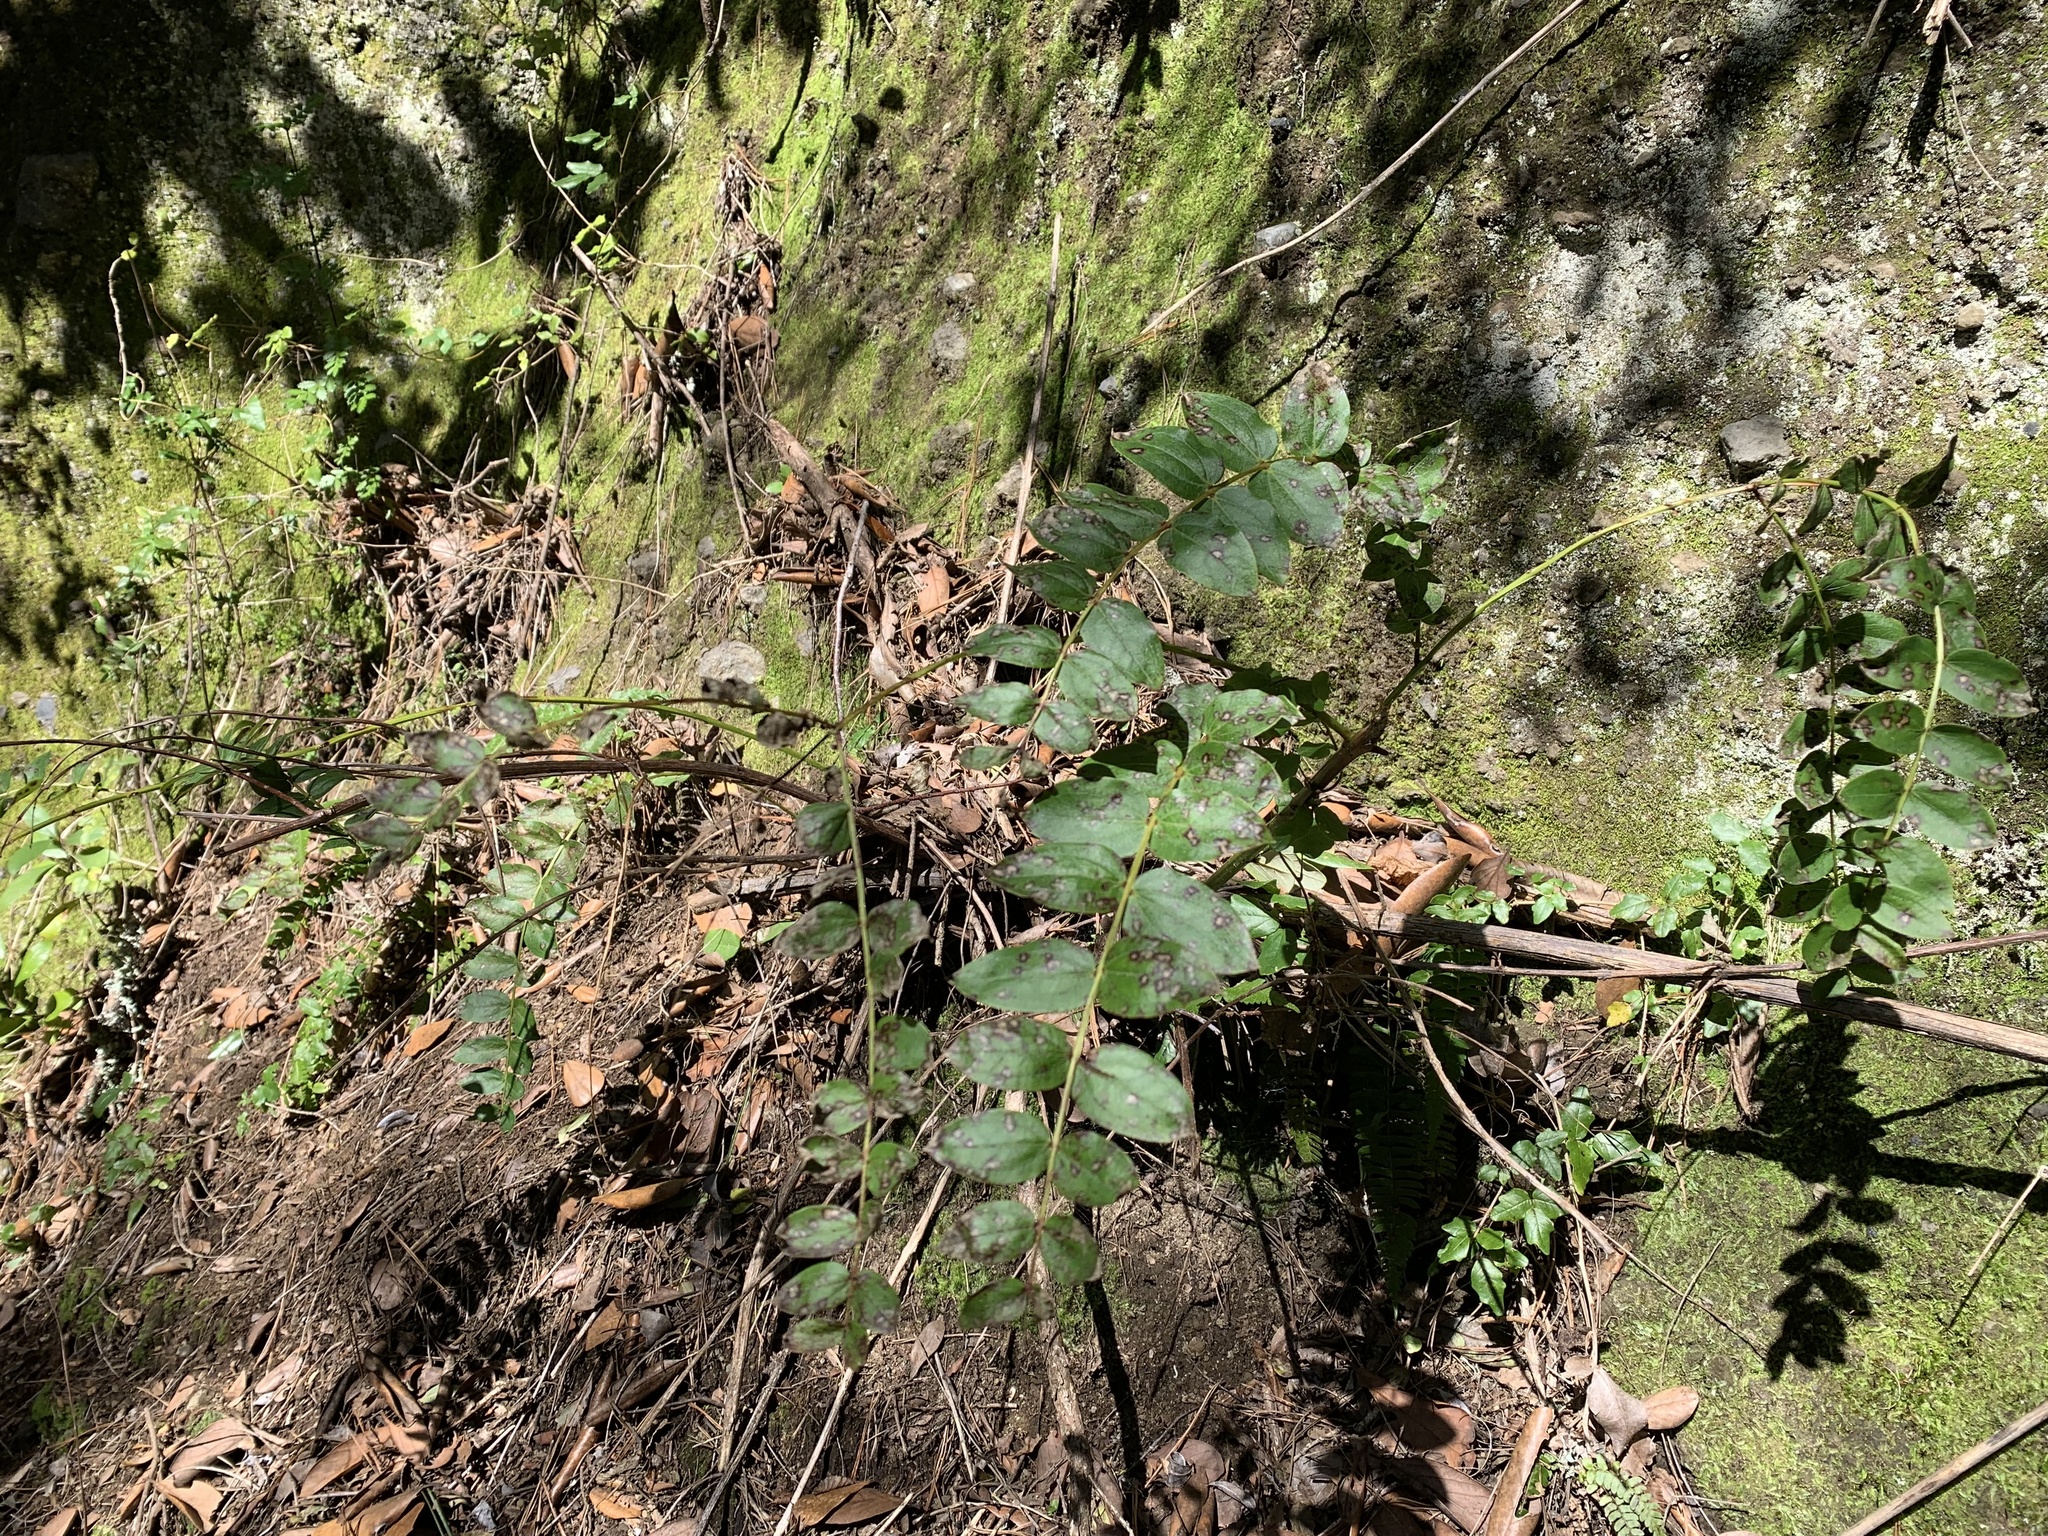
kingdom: Plantae
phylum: Tracheophyta
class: Magnoliopsida
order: Cucurbitales
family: Coriariaceae
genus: Coriaria
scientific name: Coriaria ruscifolia
